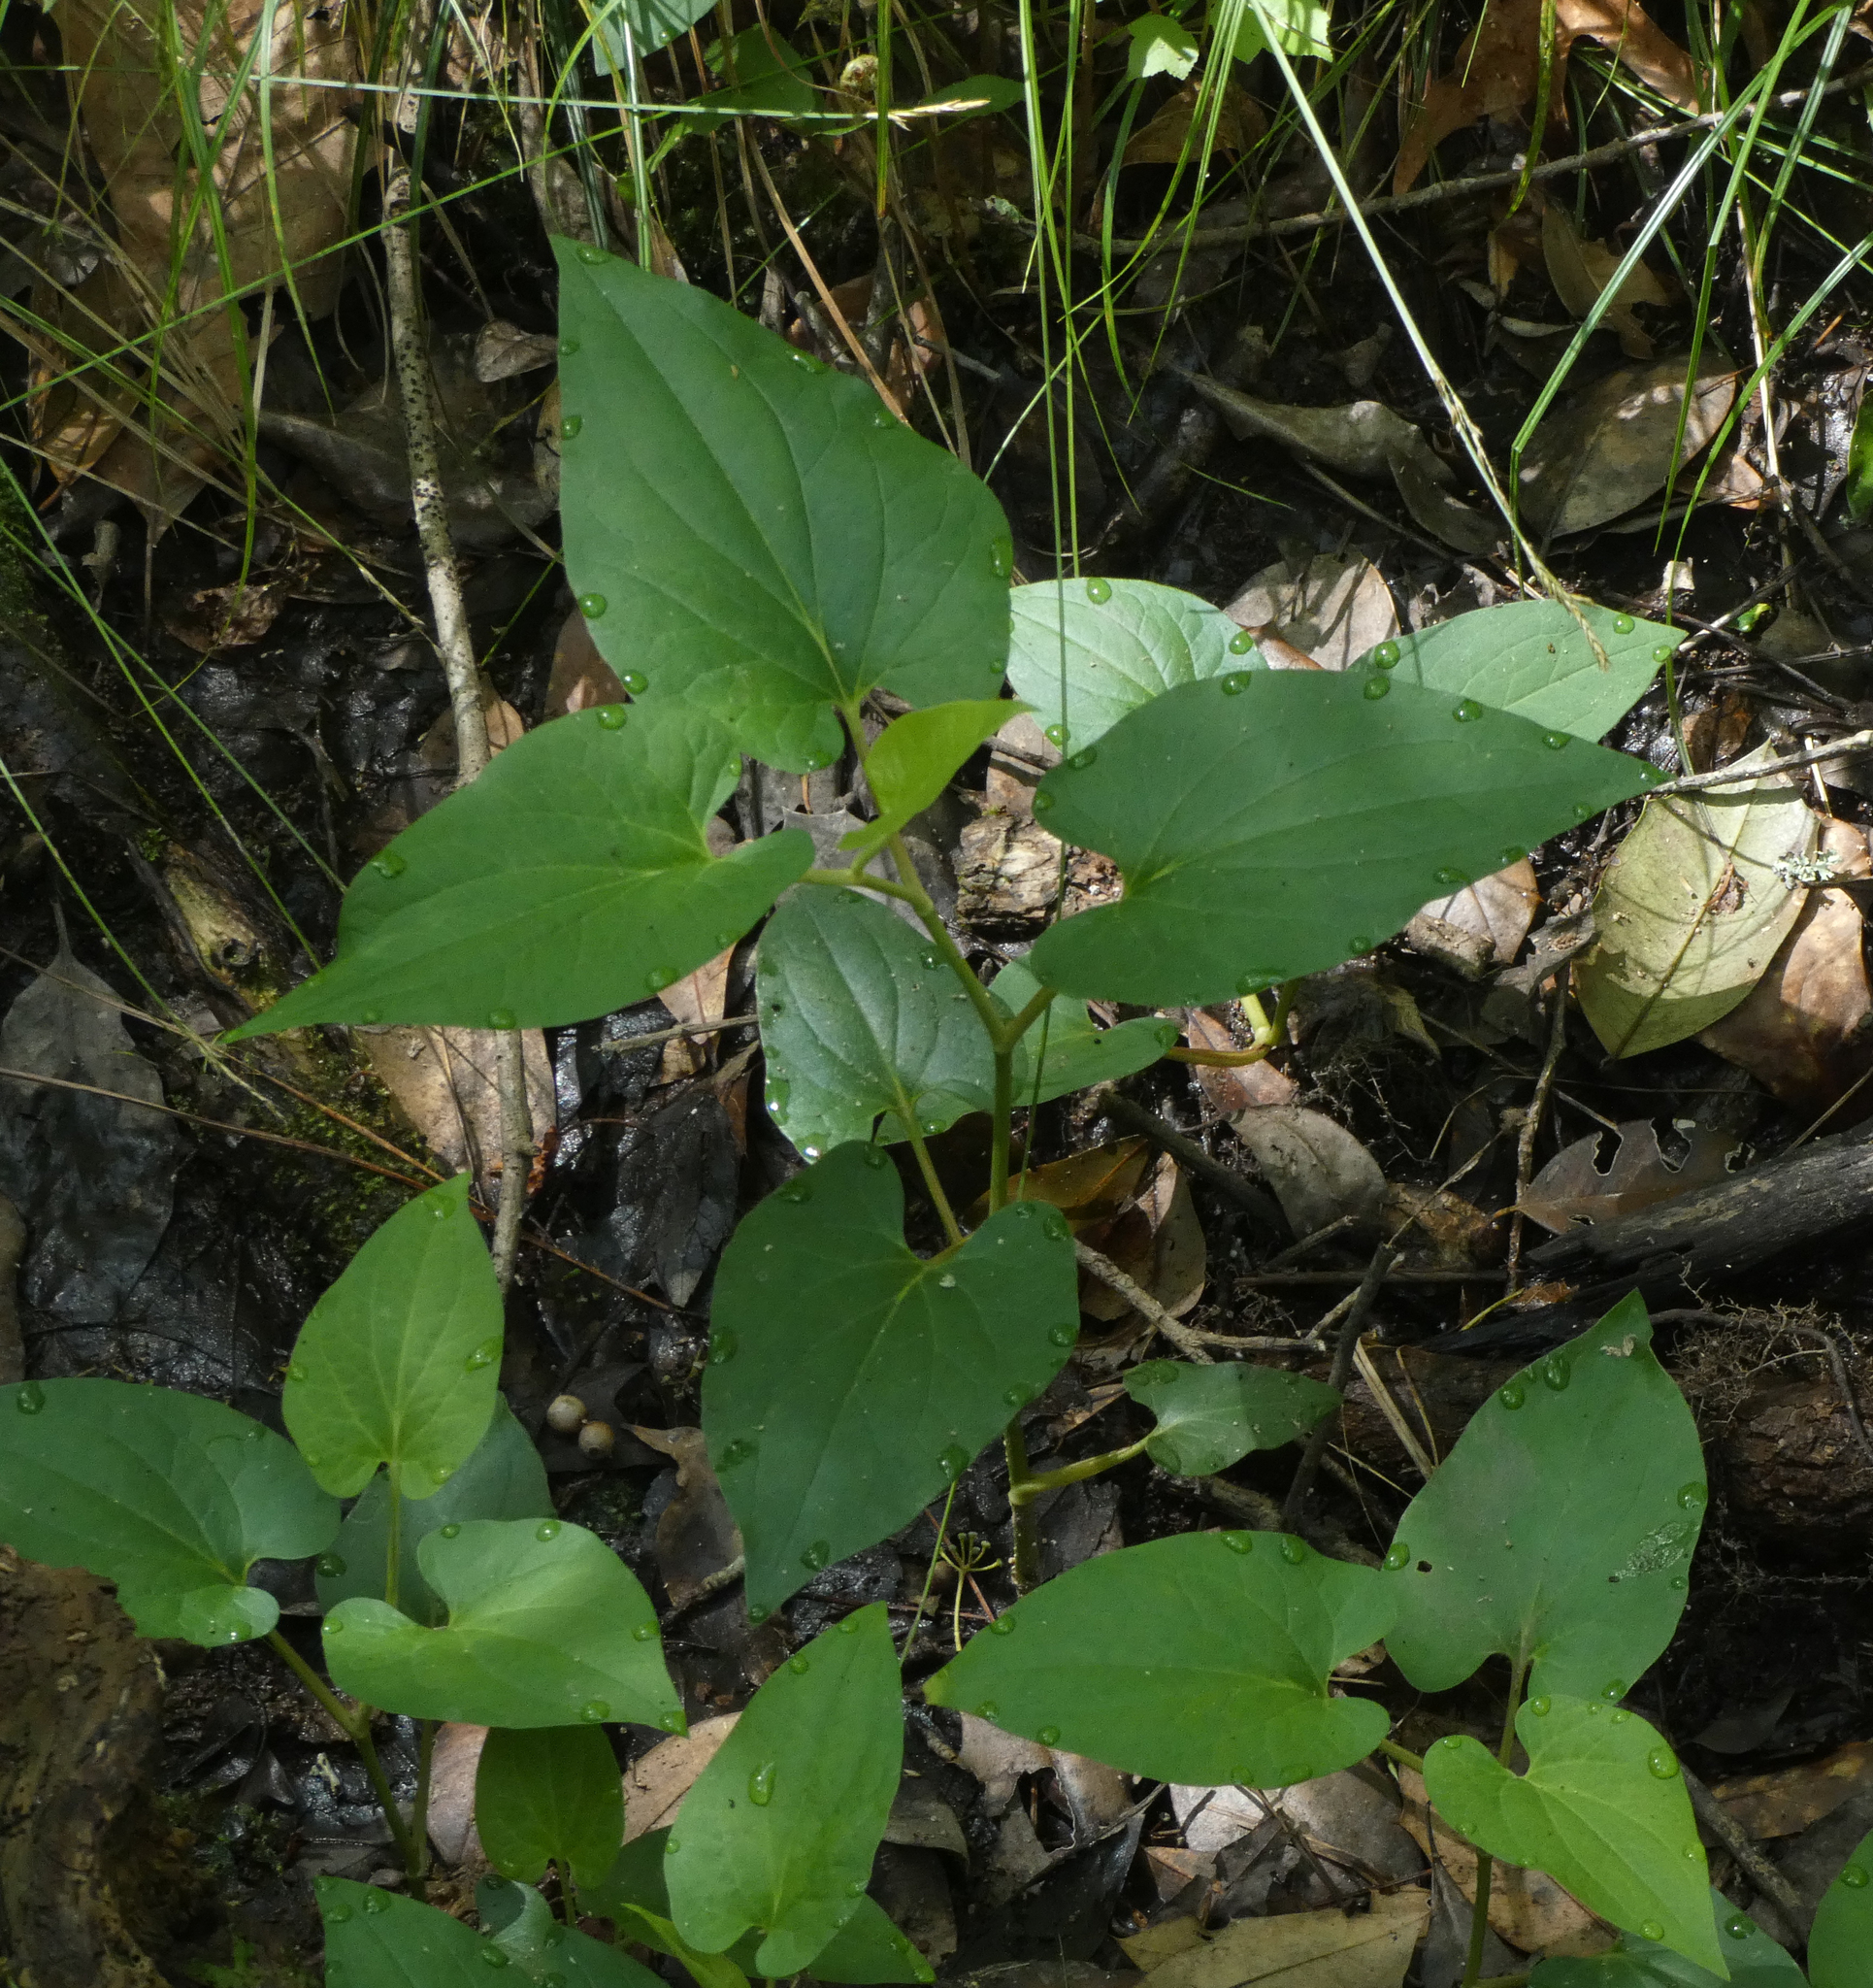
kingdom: Plantae
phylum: Tracheophyta
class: Magnoliopsida
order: Piperales
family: Saururaceae
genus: Saururus
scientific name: Saururus cernuus
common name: Lizard's-tail
